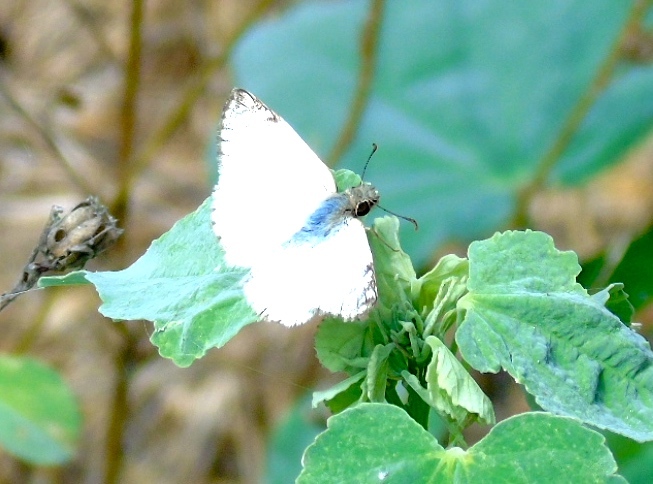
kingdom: Animalia
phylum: Arthropoda
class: Insecta
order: Lepidoptera
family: Hesperiidae
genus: Heliopetes
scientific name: Heliopetes laviana
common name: Laviana white-skipper
